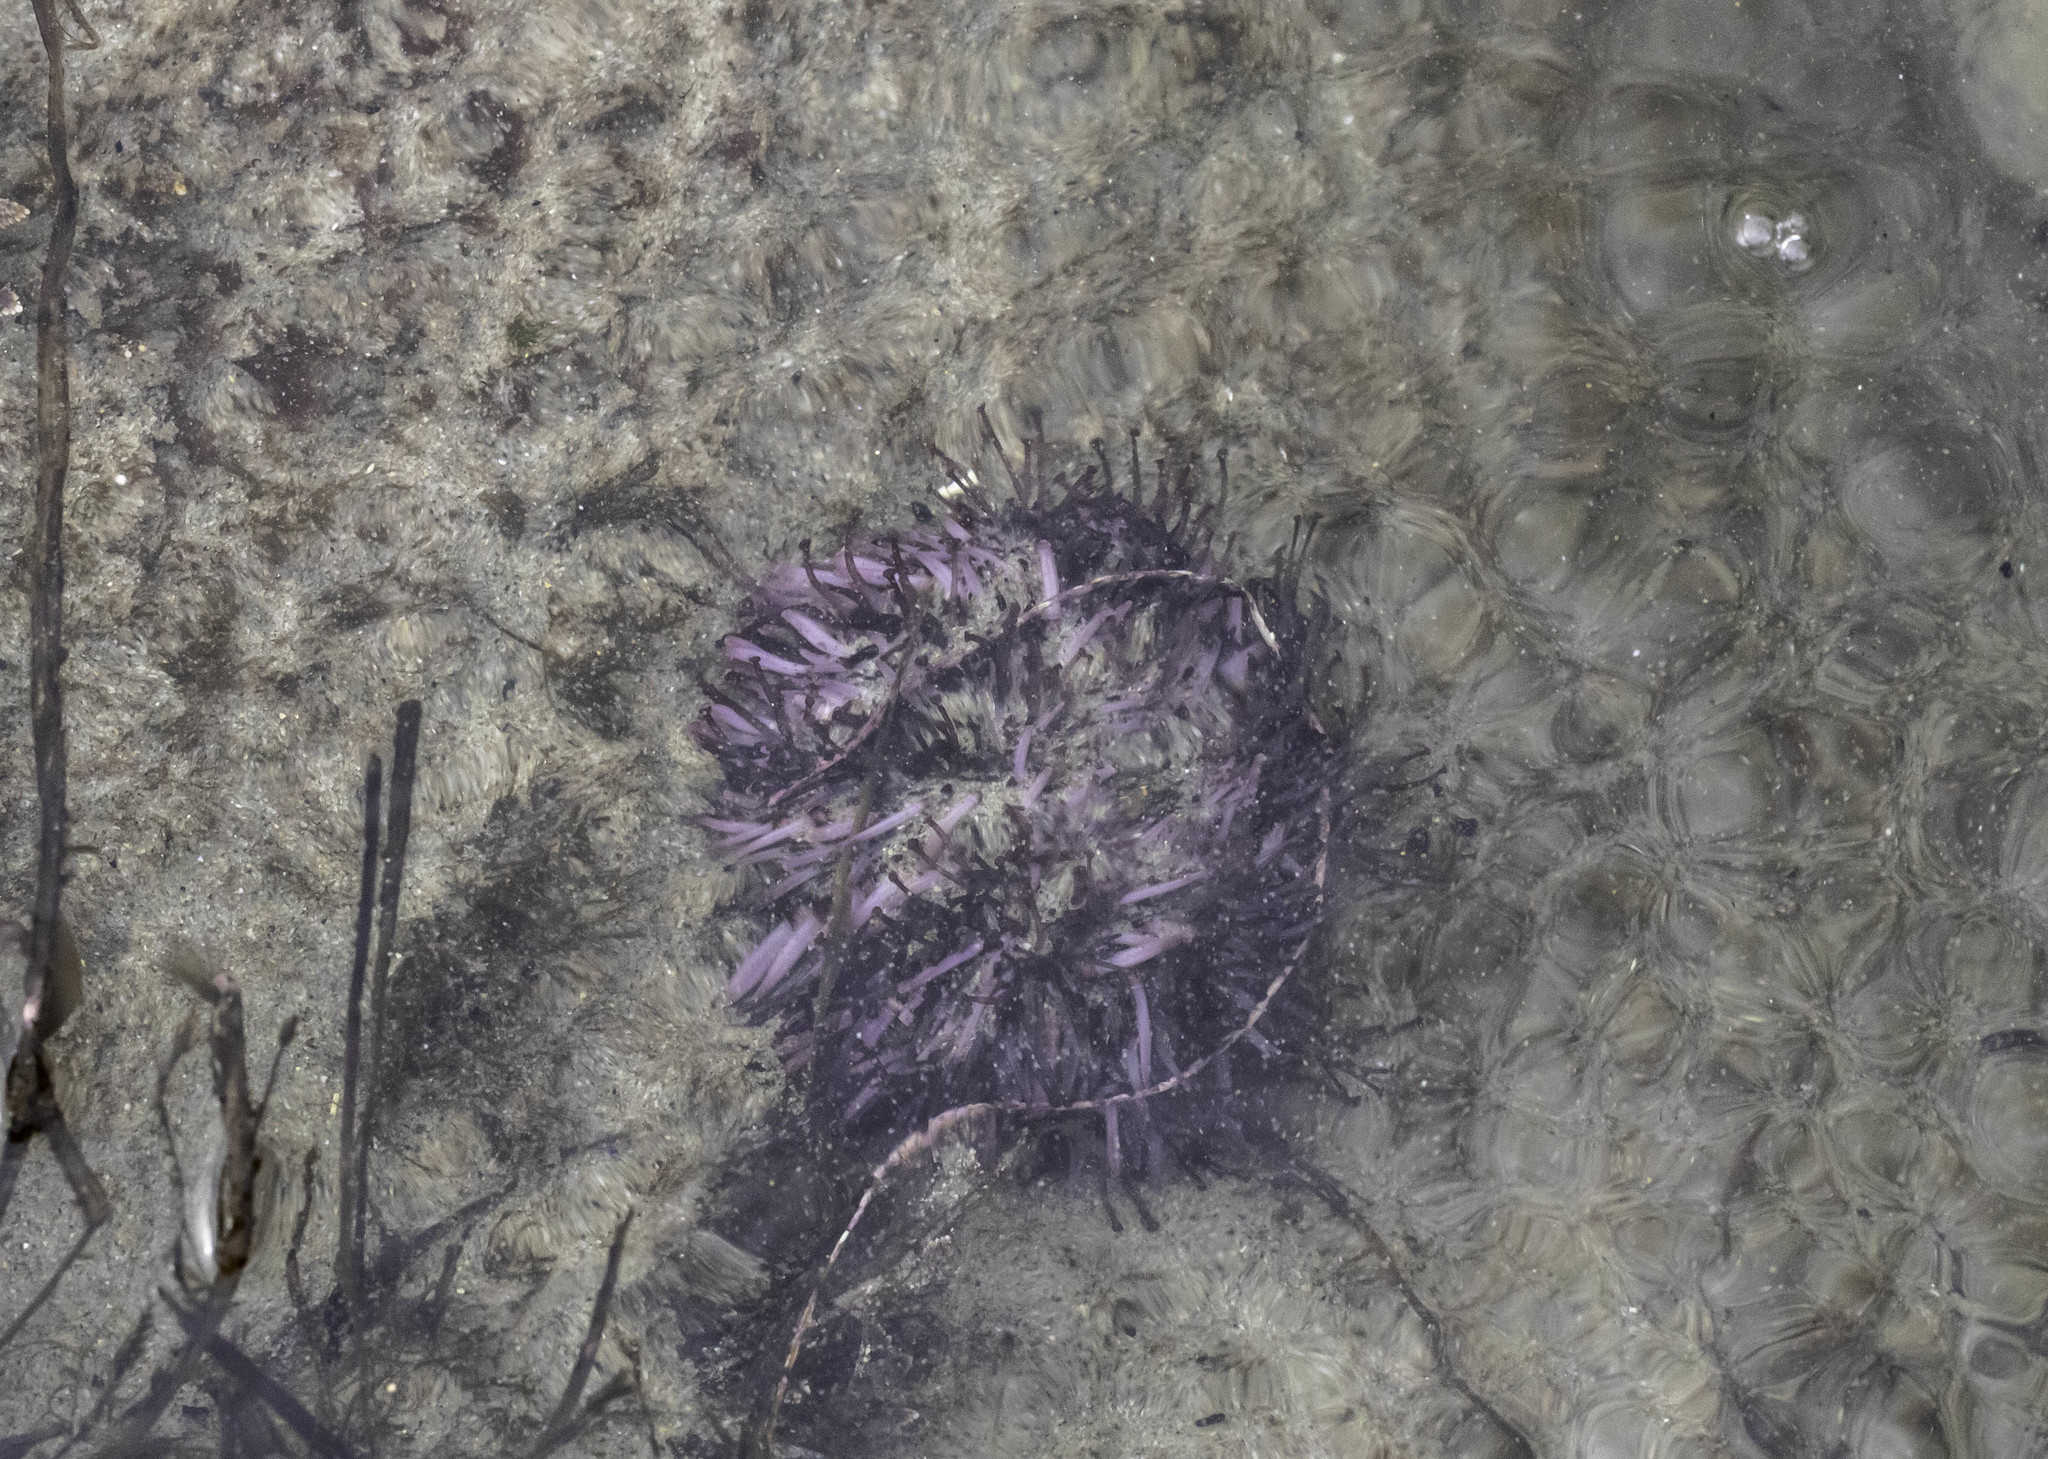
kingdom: Animalia
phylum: Echinodermata
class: Echinoidea
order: Camarodonta
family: Strongylocentrotidae
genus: Strongylocentrotus
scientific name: Strongylocentrotus purpuratus
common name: Purple sea urchin
